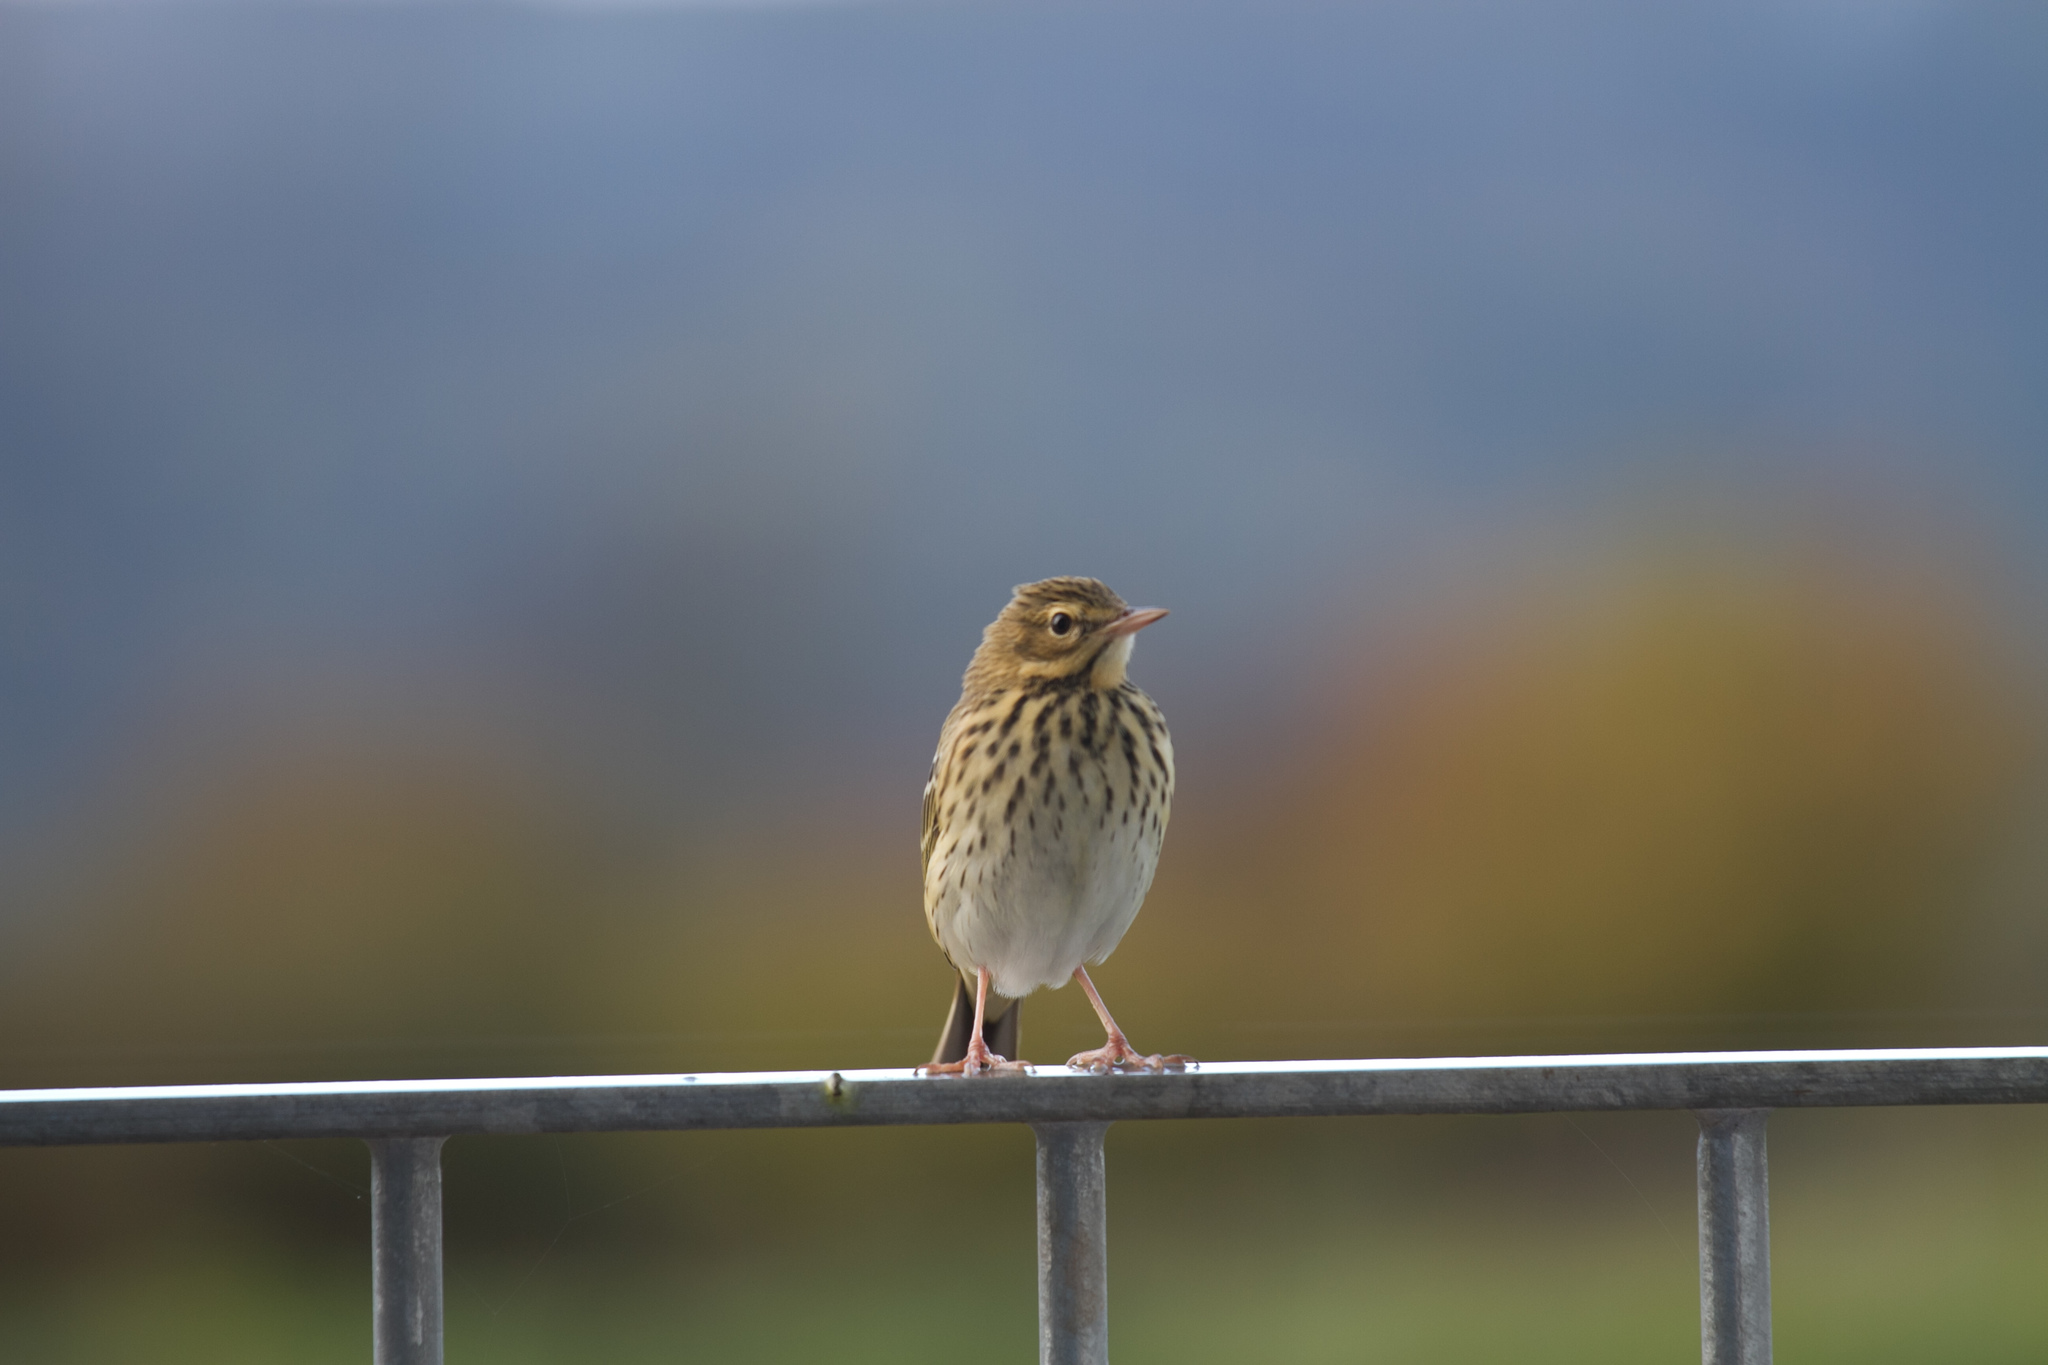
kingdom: Animalia
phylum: Chordata
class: Aves
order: Passeriformes
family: Motacillidae
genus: Anthus
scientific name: Anthus pratensis
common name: Meadow pipit
